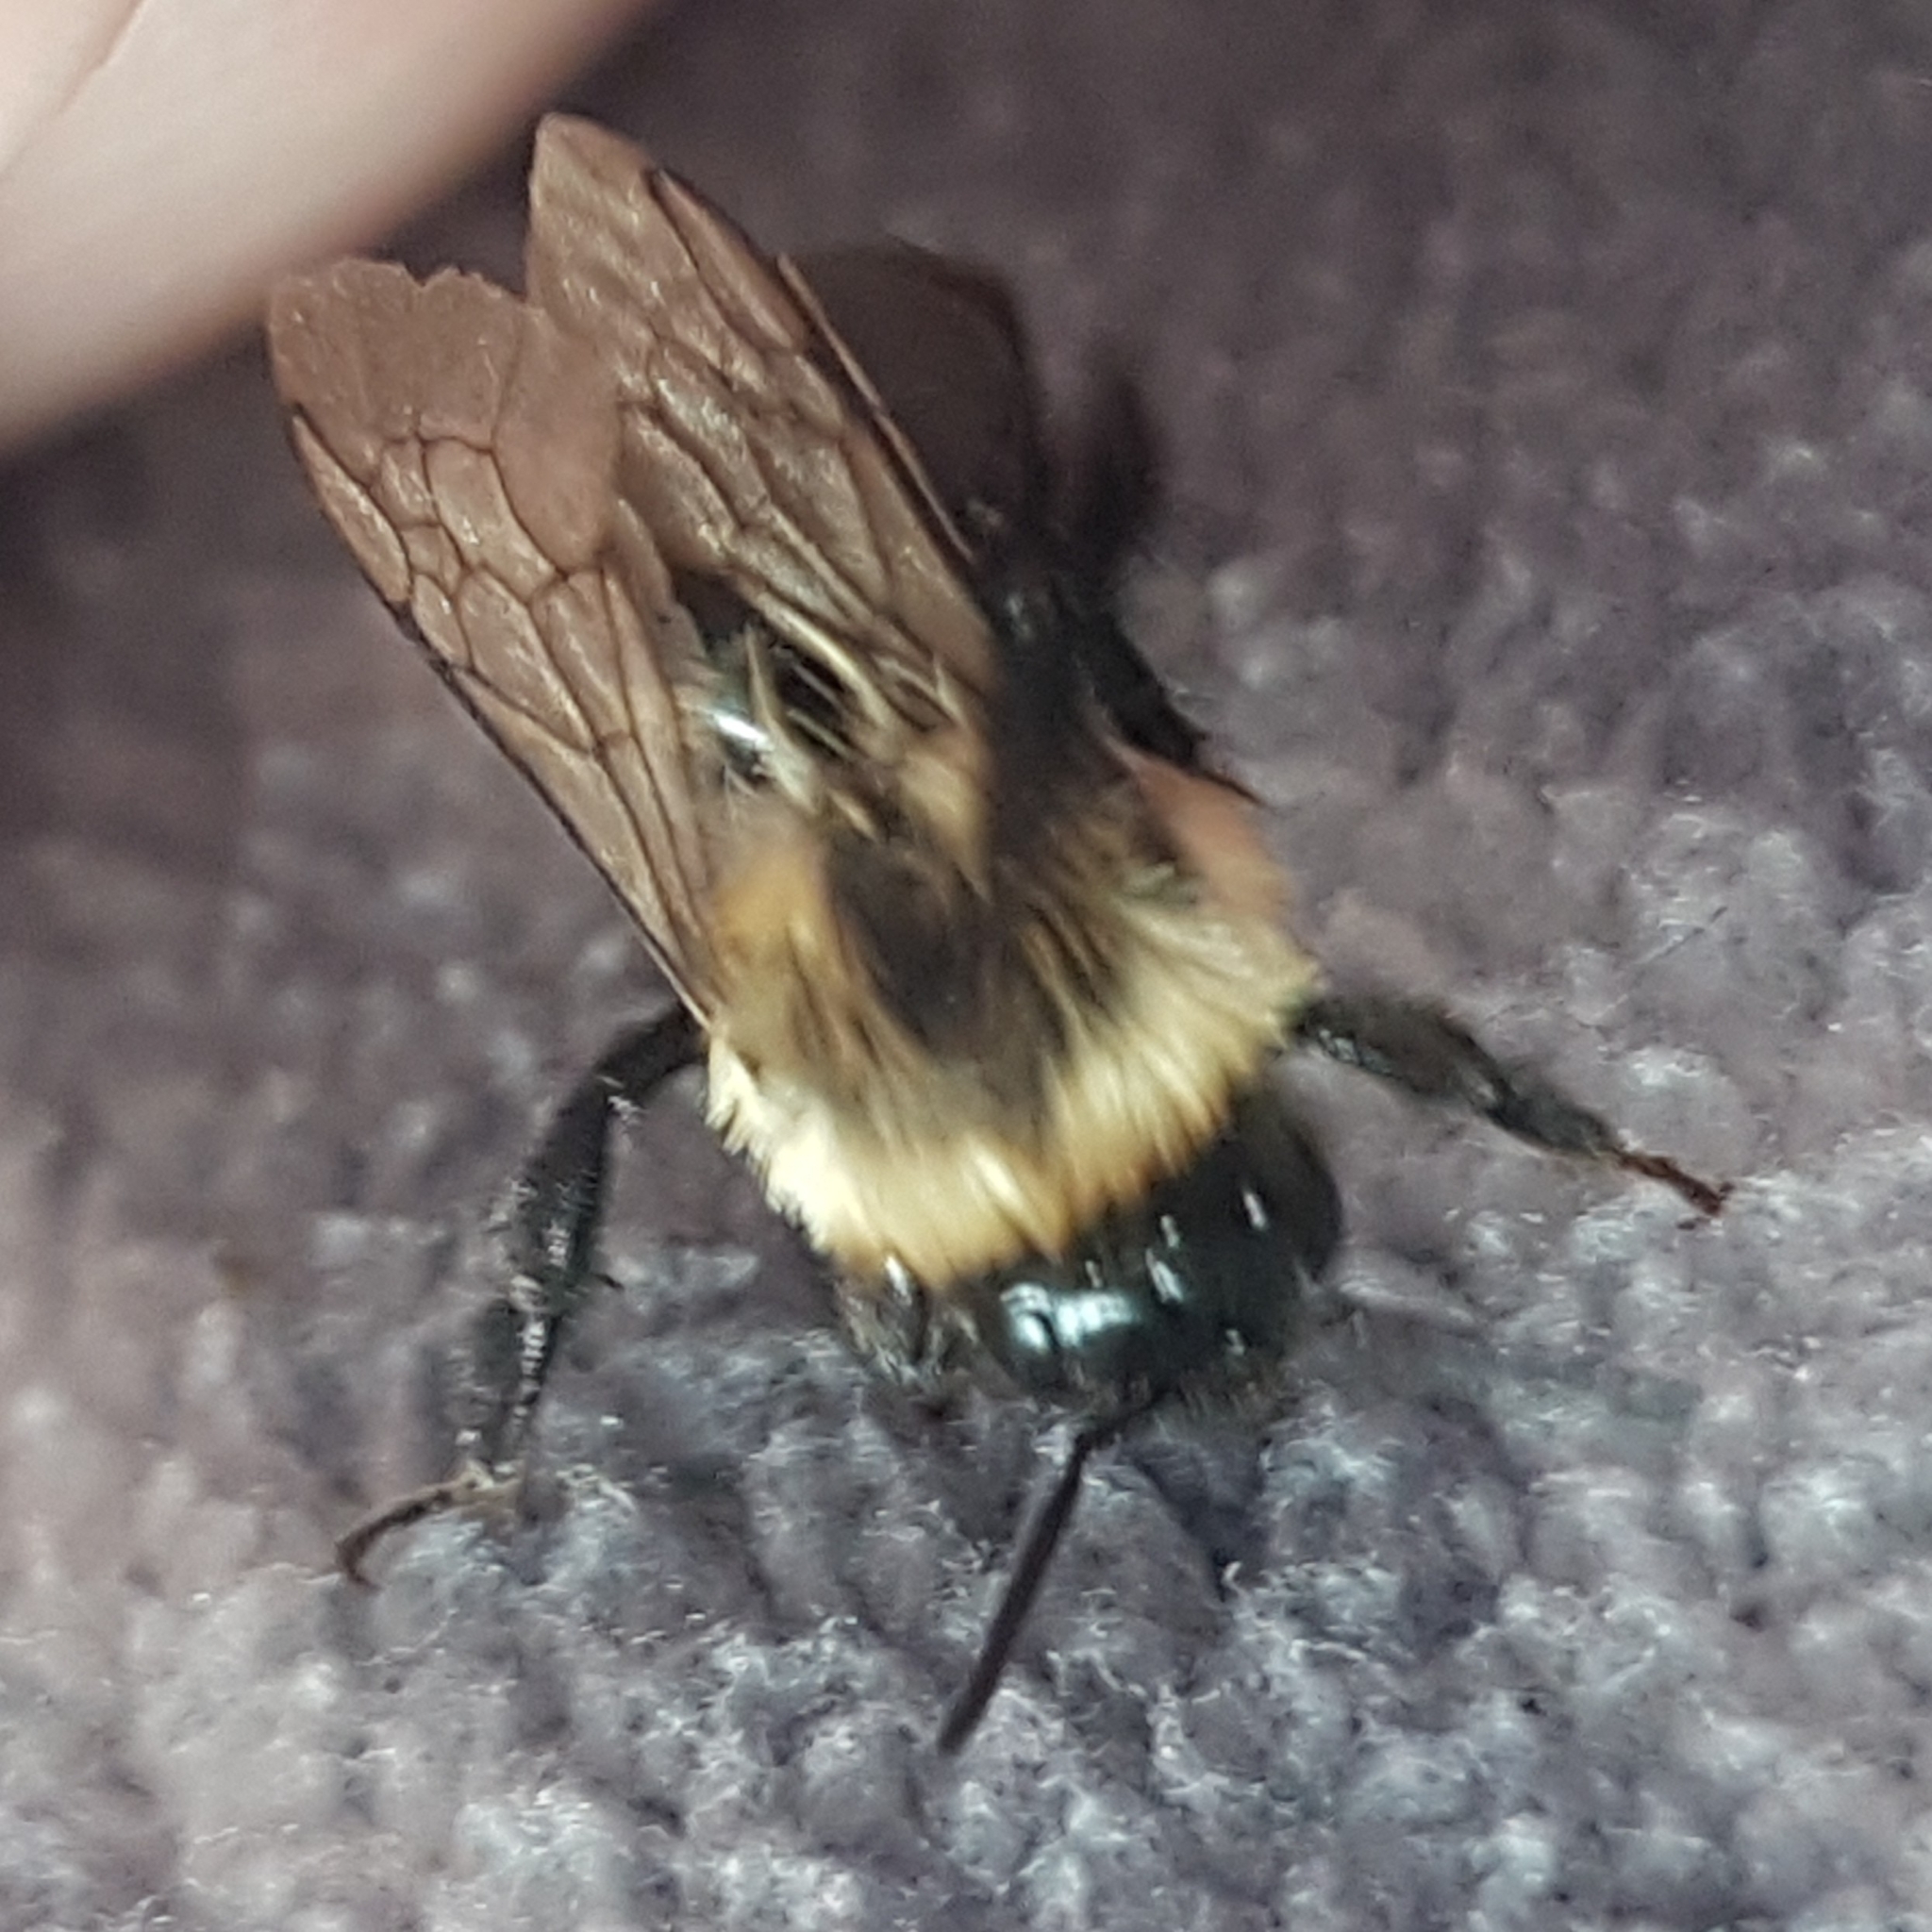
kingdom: Animalia
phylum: Arthropoda
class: Insecta
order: Hymenoptera
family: Apidae
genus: Bombus
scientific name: Bombus impatiens
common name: Common eastern bumble bee
